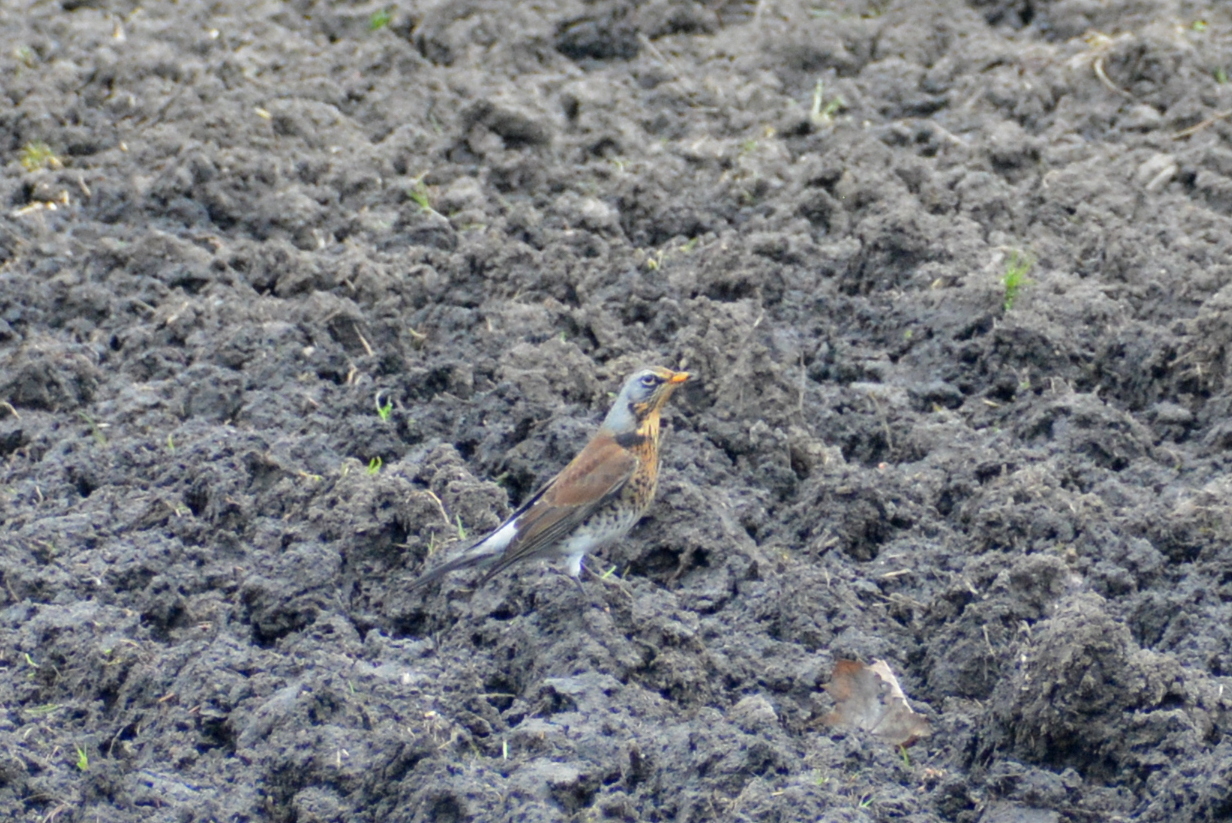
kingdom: Animalia
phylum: Chordata
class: Aves
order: Passeriformes
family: Turdidae
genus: Turdus
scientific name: Turdus pilaris
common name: Fieldfare
